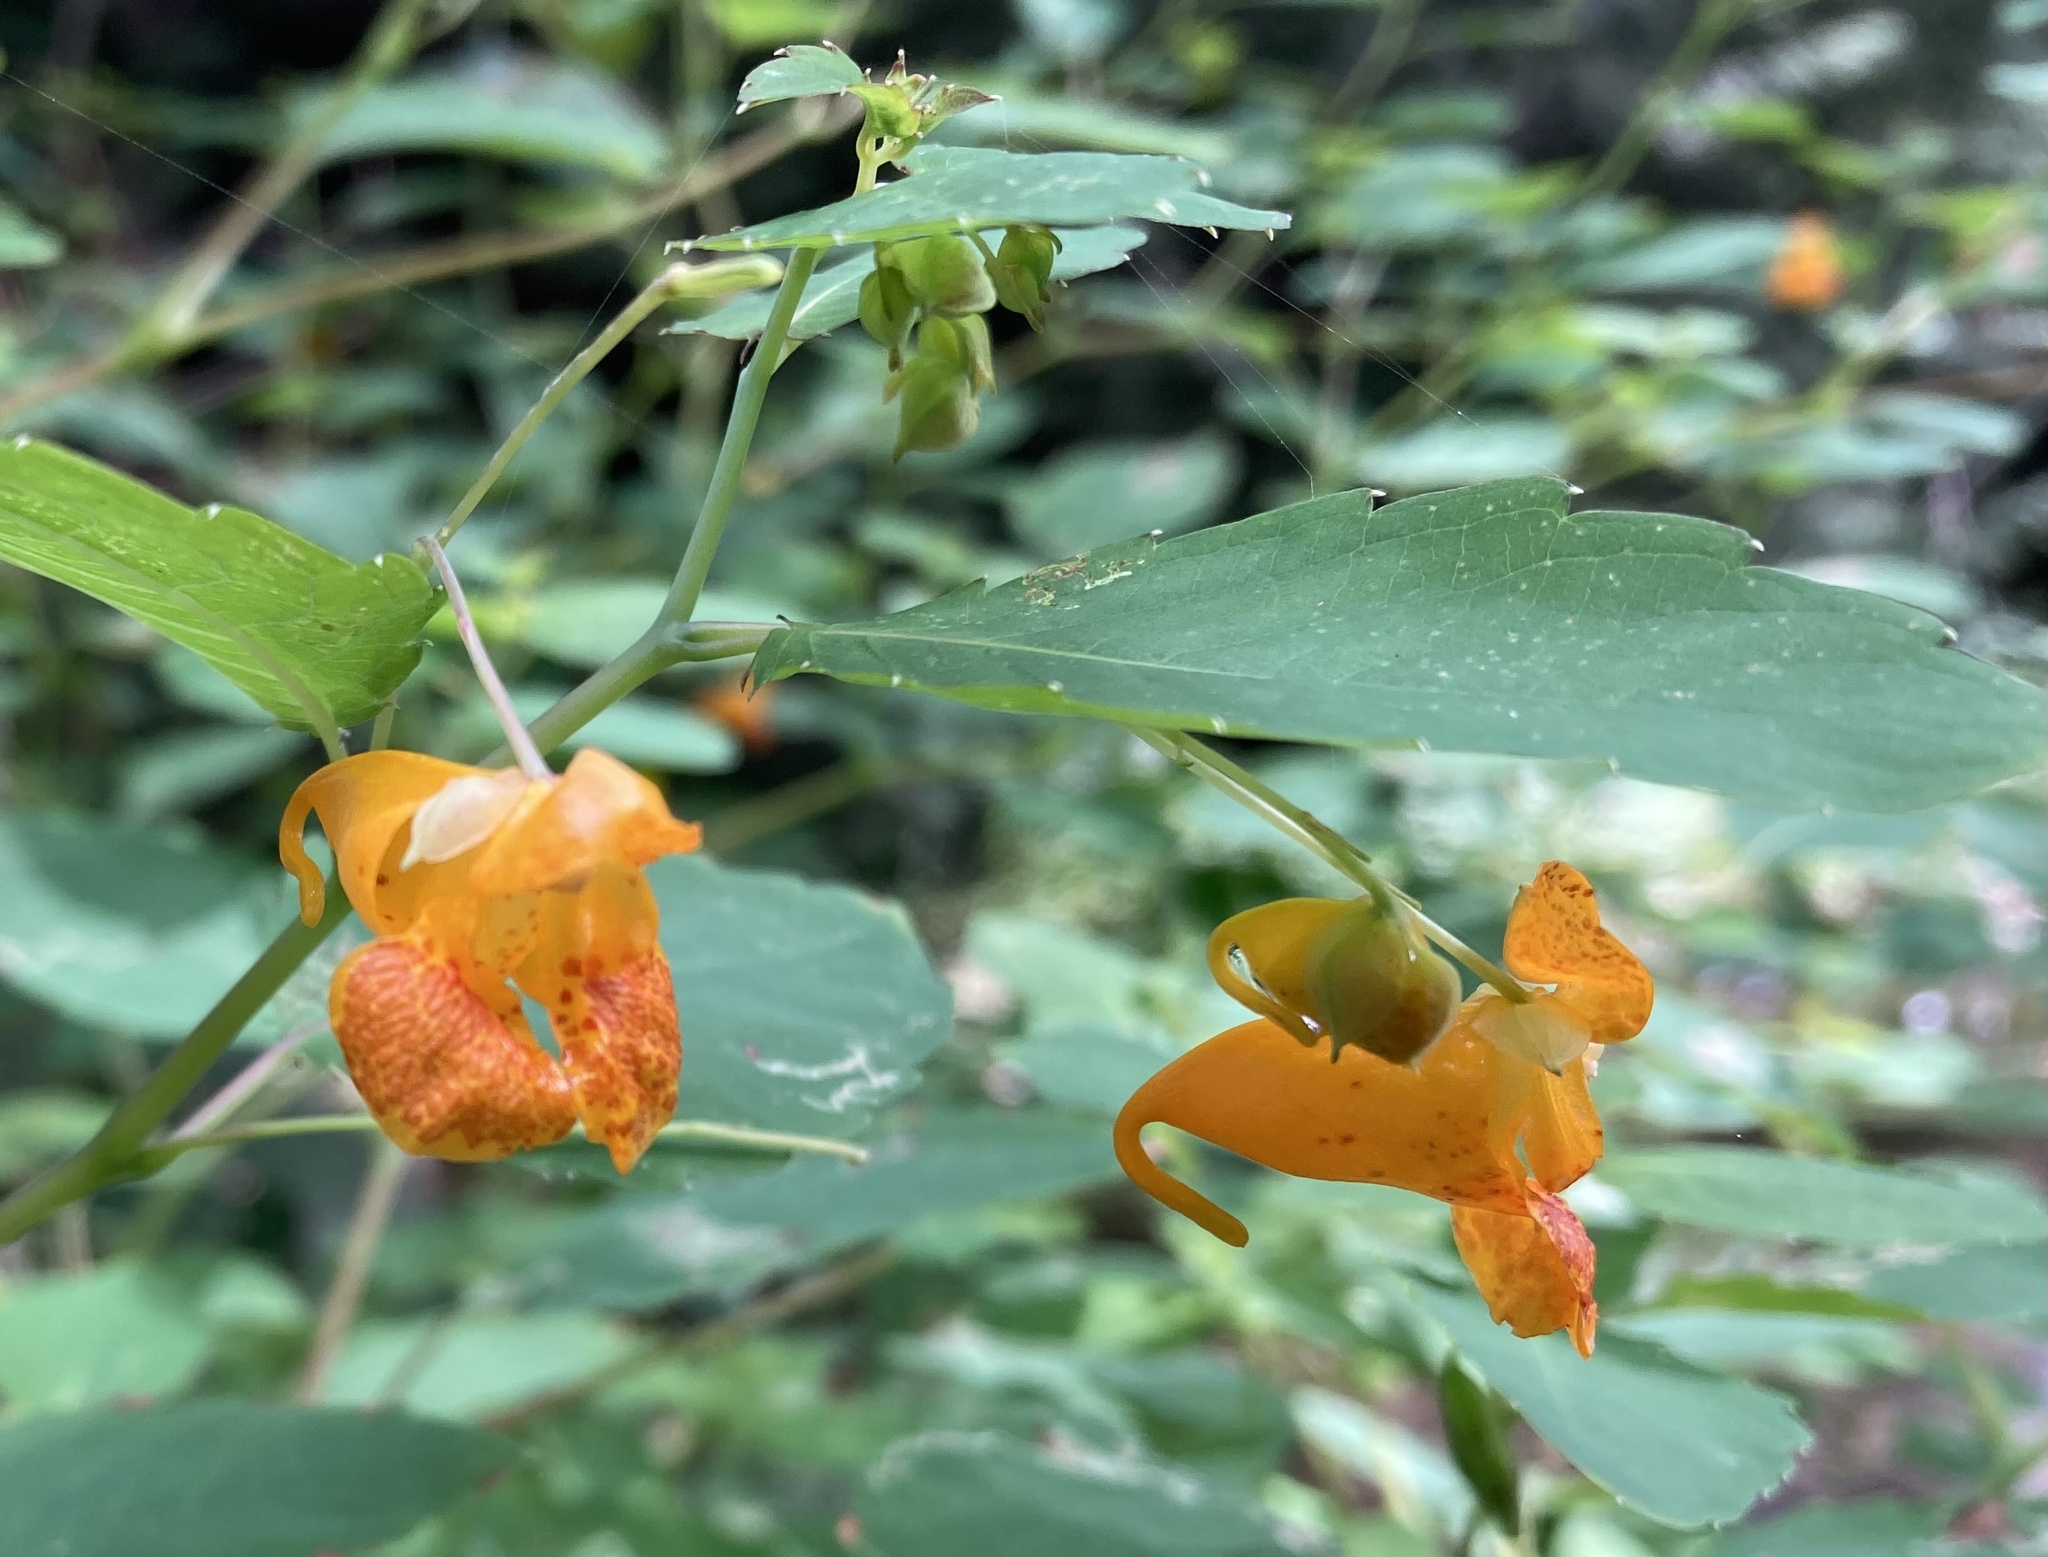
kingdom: Plantae
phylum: Tracheophyta
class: Magnoliopsida
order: Ericales
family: Balsaminaceae
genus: Impatiens
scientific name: Impatiens capensis
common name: Orange balsam
